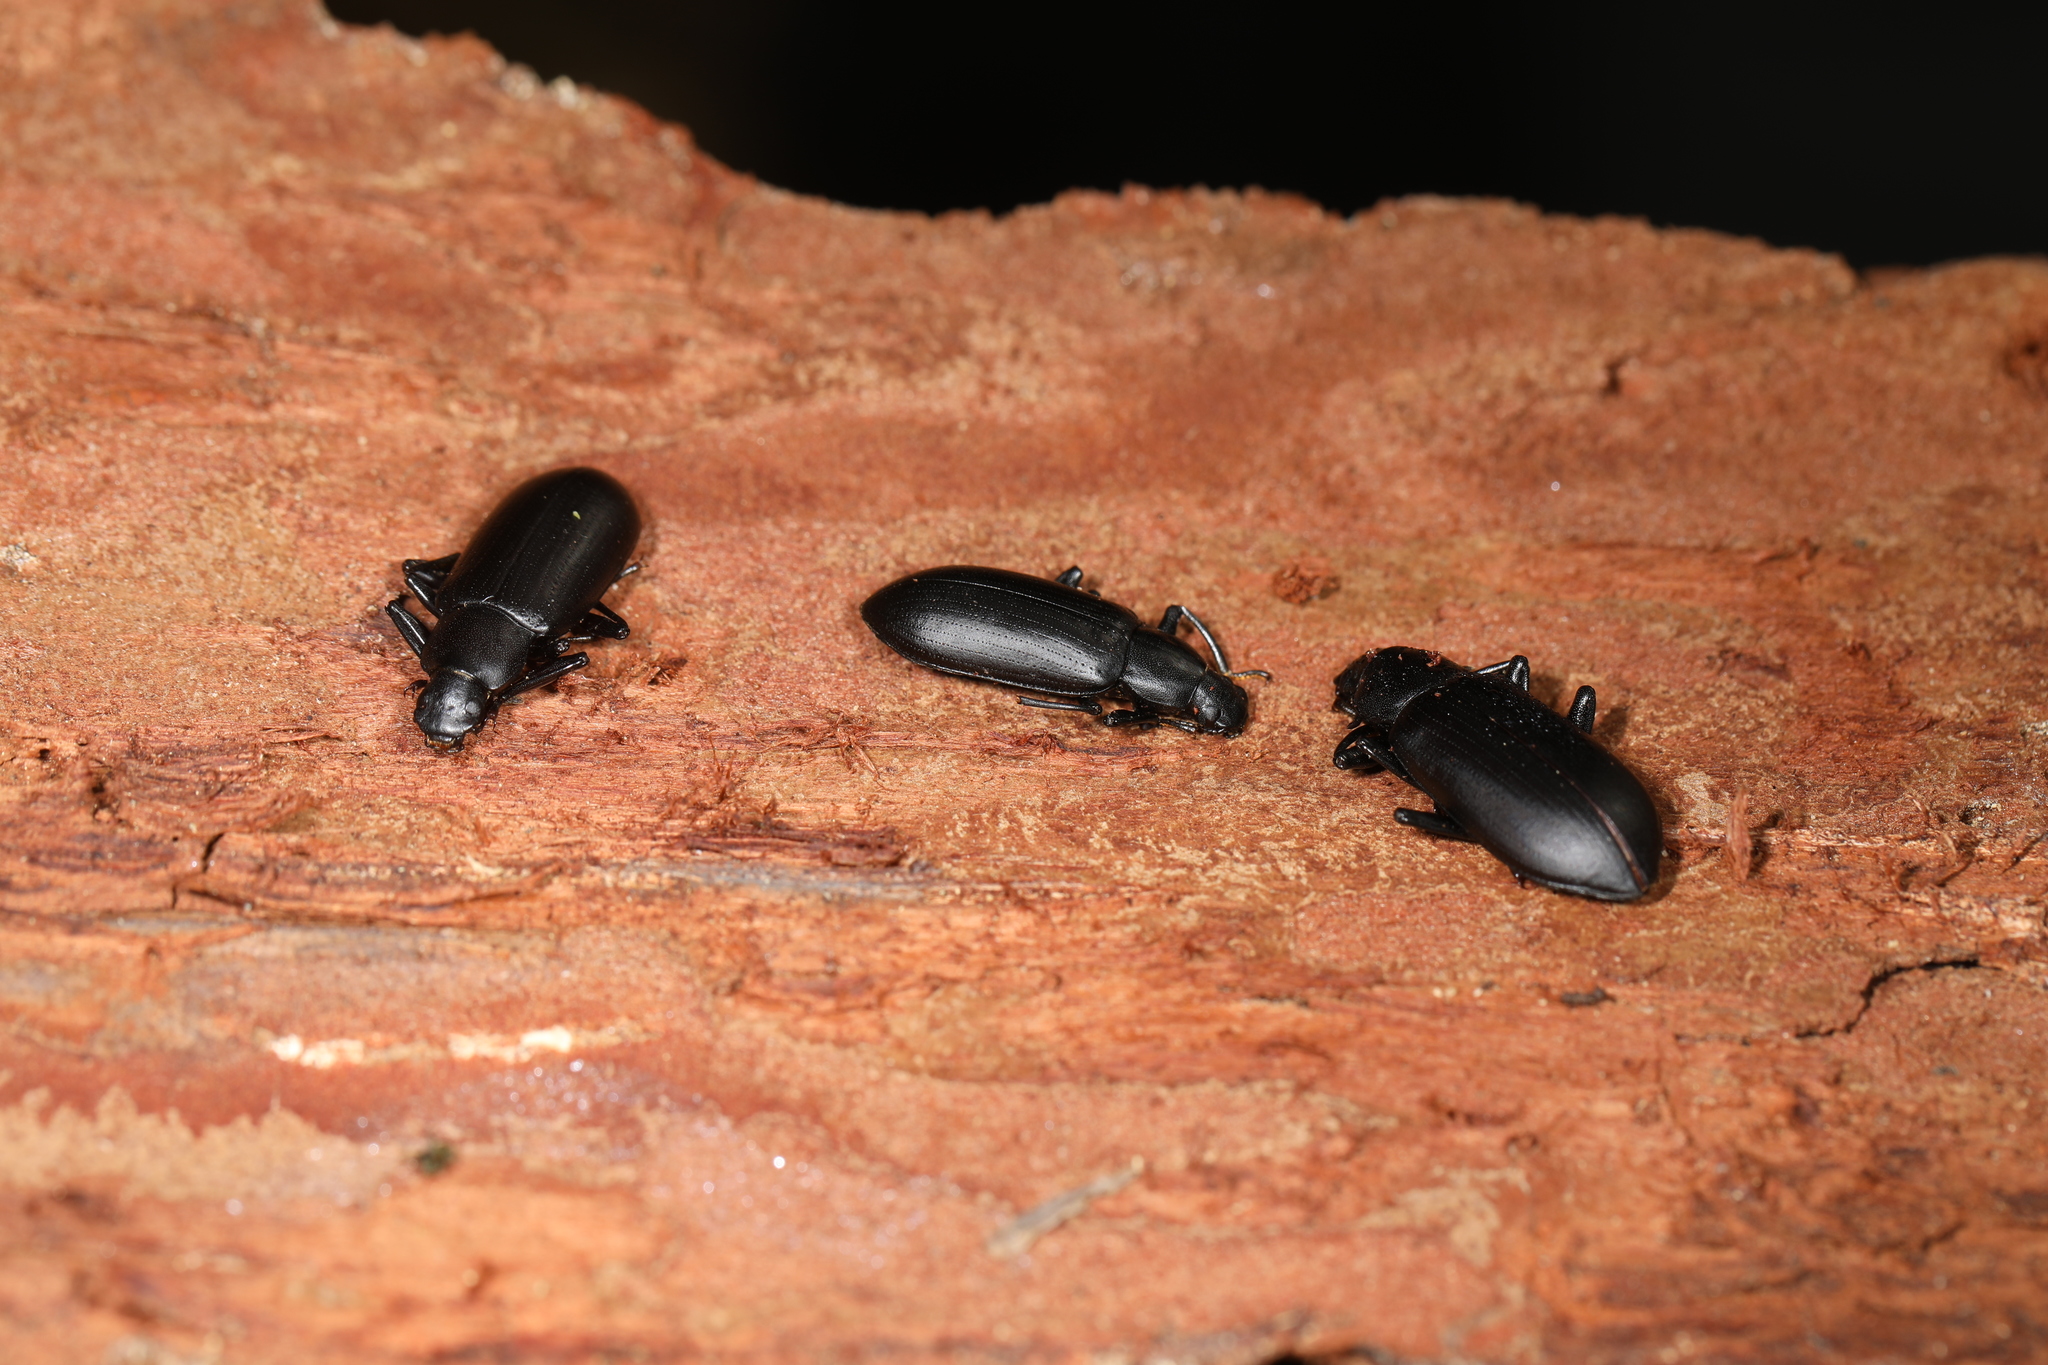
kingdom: Animalia
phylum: Arthropoda
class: Insecta
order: Coleoptera
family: Tenebrionidae
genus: Alobates
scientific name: Alobates pensylvanicus
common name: False mealworm beetle
